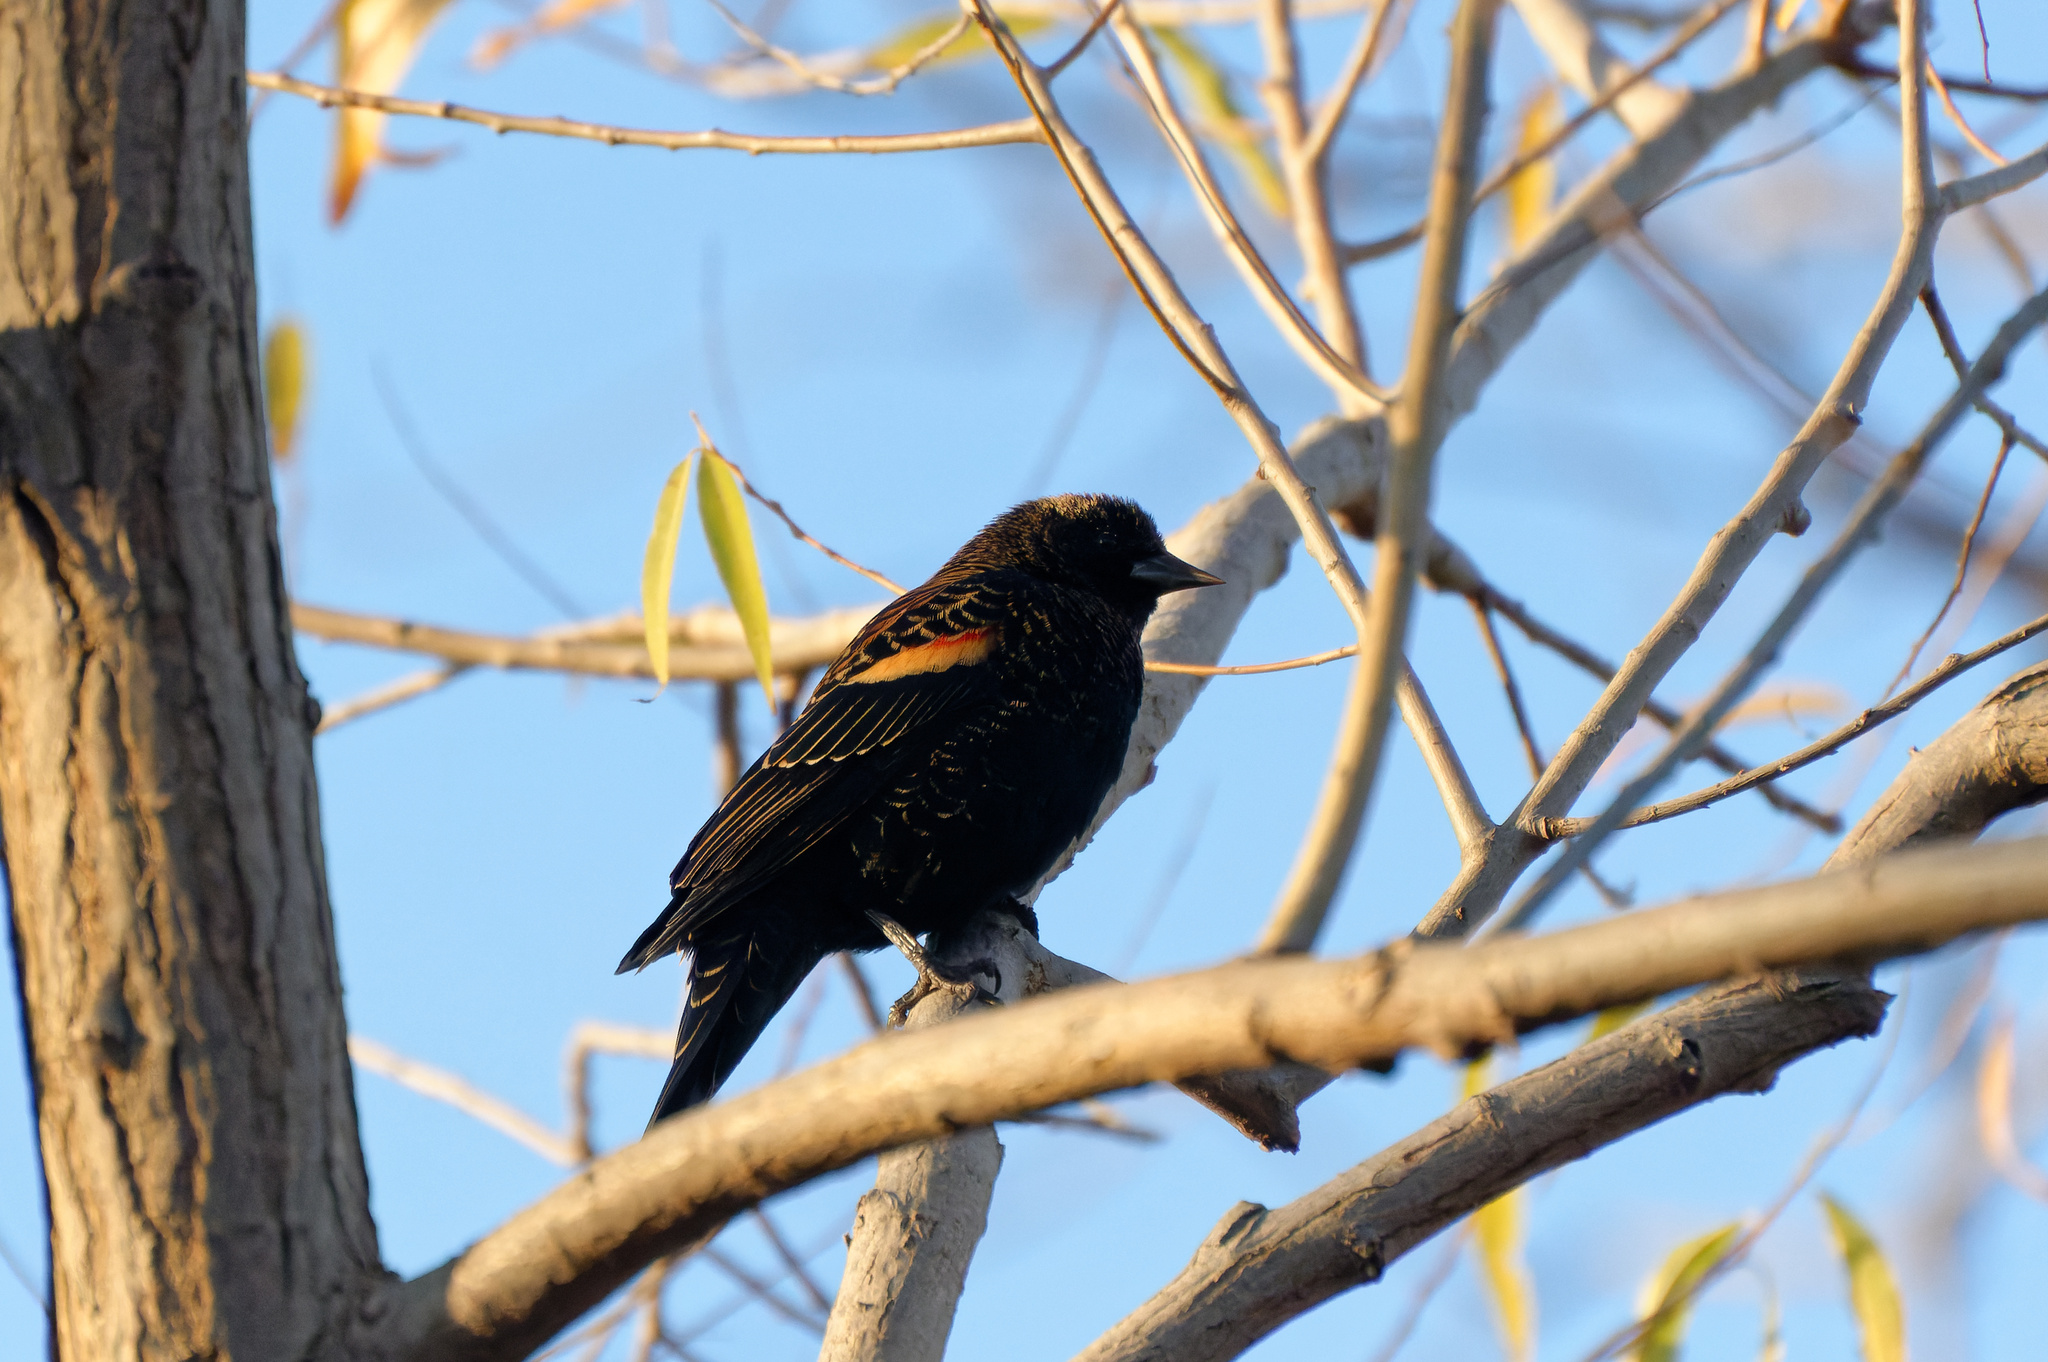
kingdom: Animalia
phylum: Chordata
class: Aves
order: Passeriformes
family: Icteridae
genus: Agelaius
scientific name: Agelaius phoeniceus
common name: Red-winged blackbird
